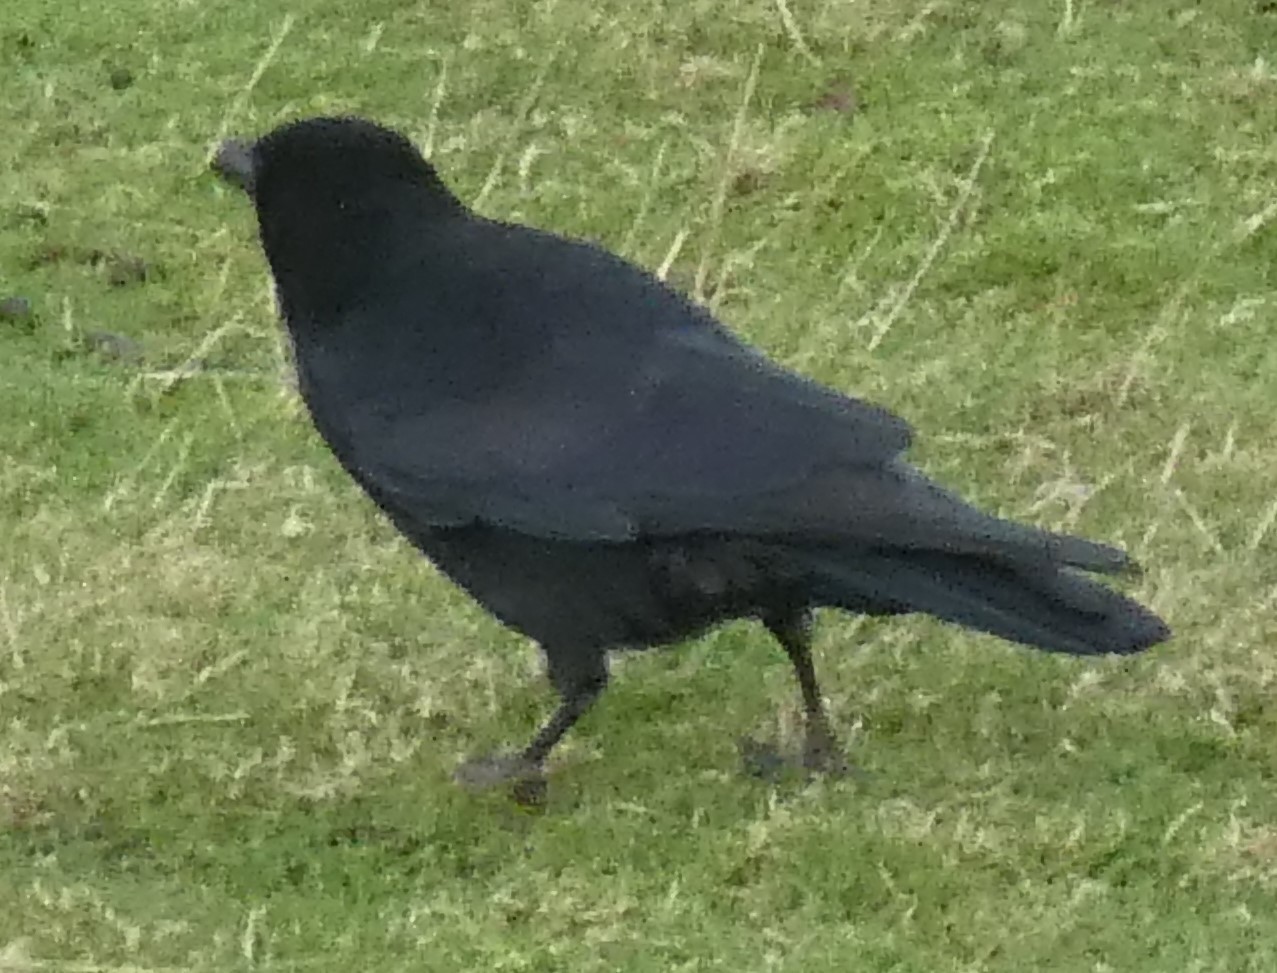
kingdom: Animalia
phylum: Chordata
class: Aves
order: Passeriformes
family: Corvidae
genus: Corvus
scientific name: Corvus corone
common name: Carrion crow
